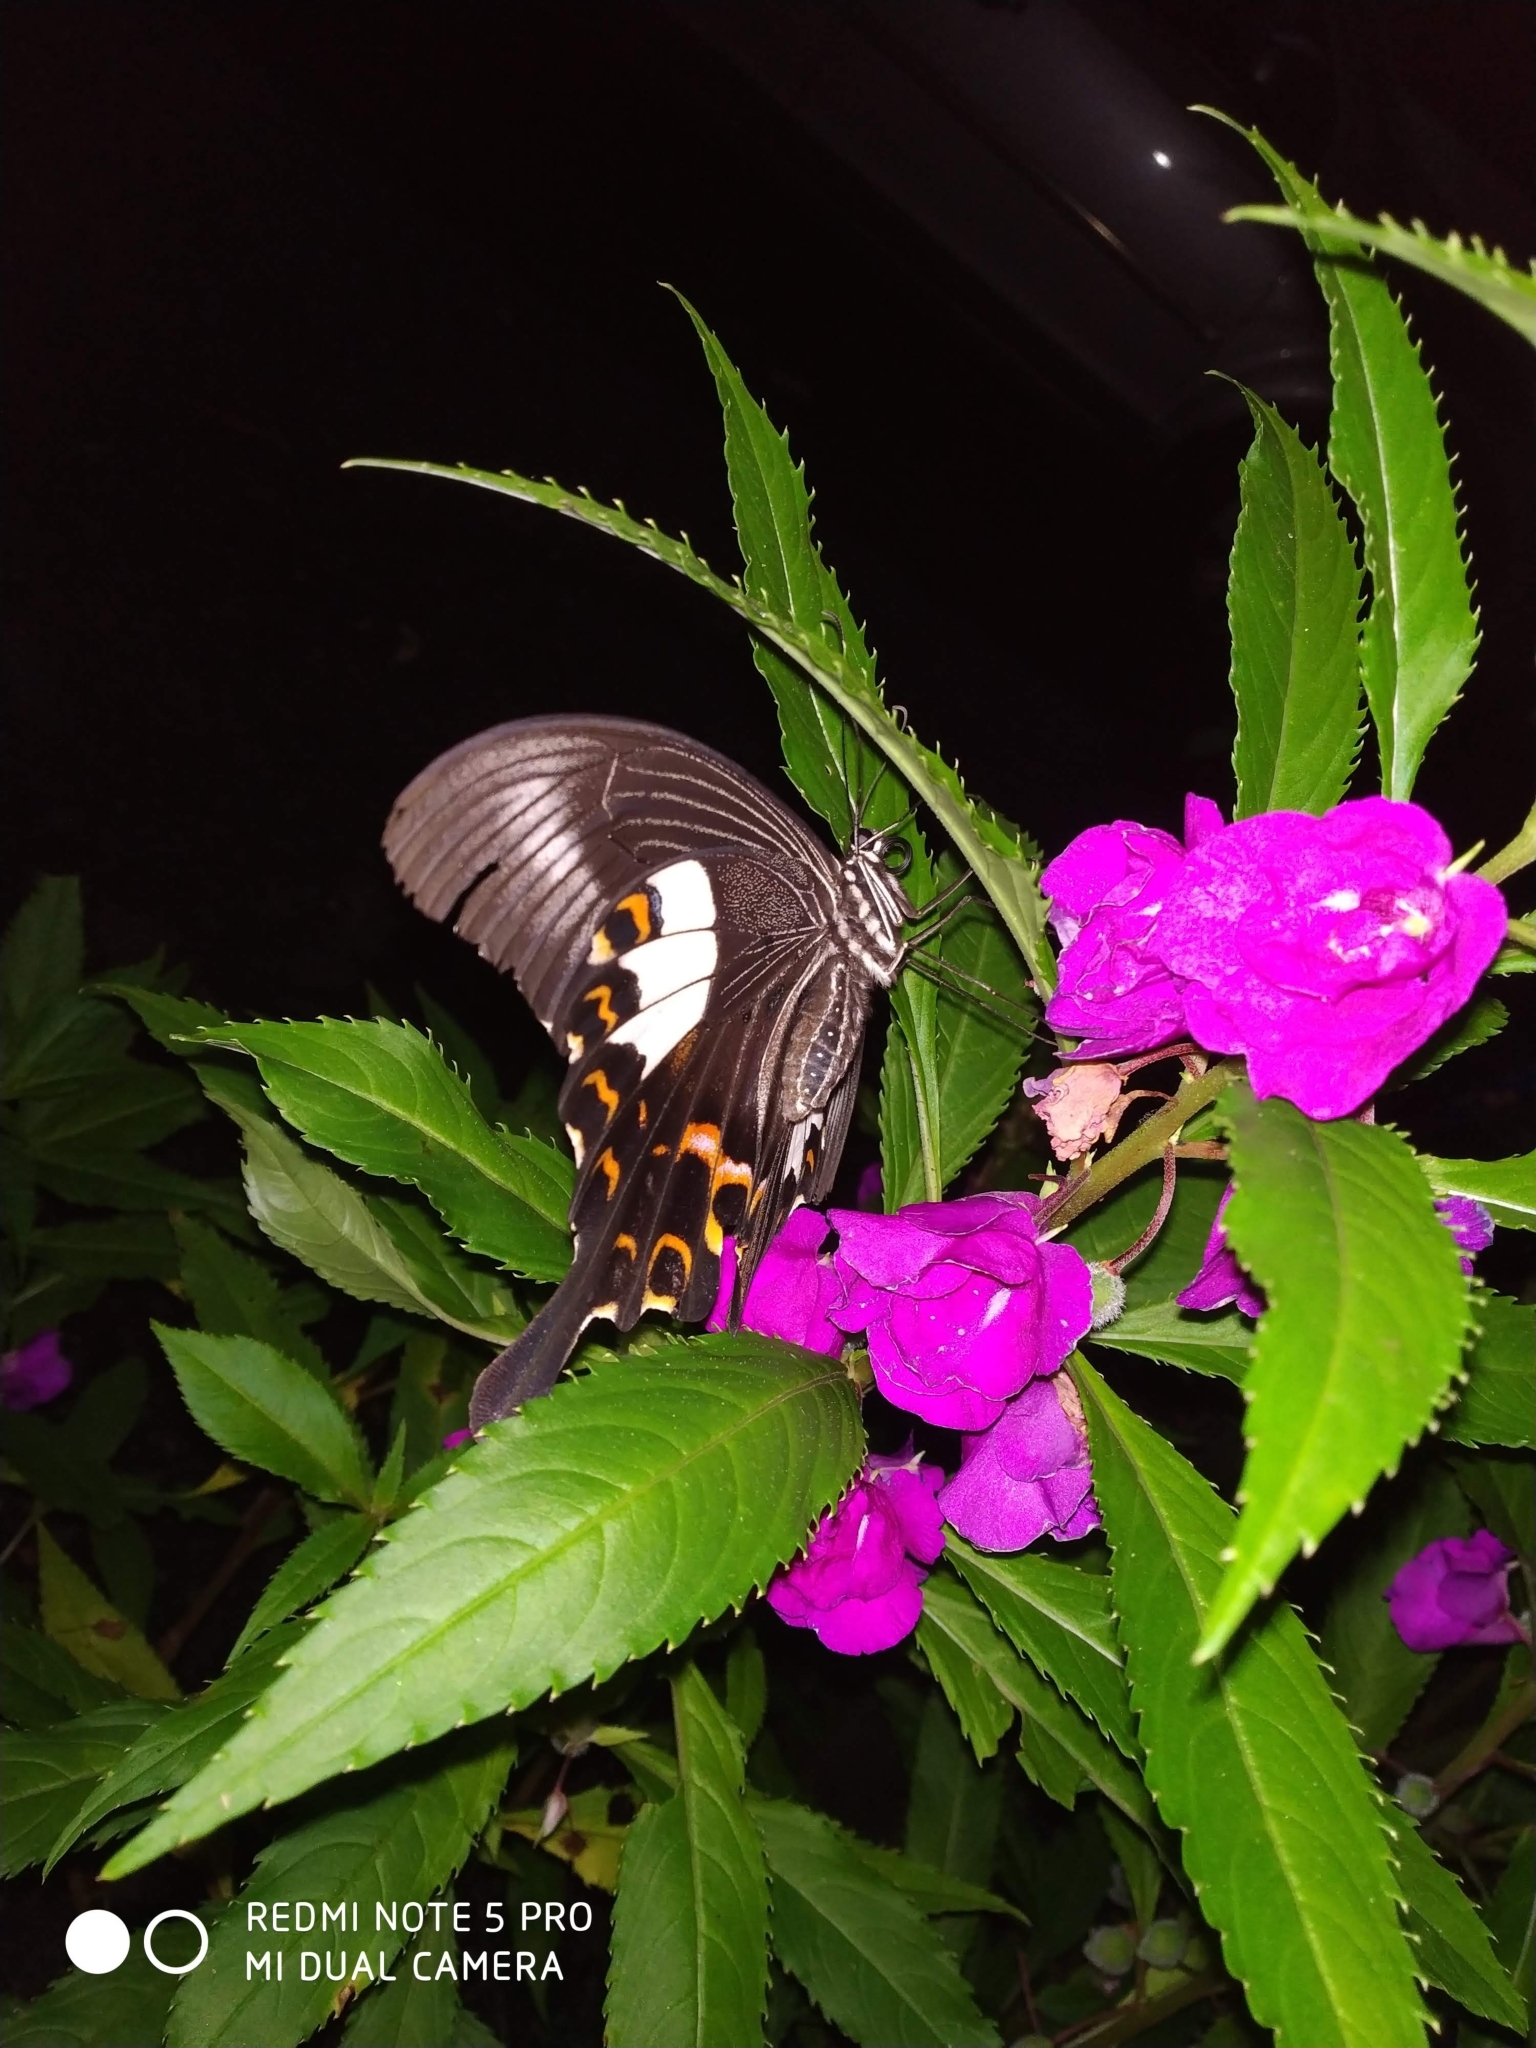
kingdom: Animalia
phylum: Arthropoda
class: Insecta
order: Lepidoptera
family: Papilionidae
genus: Papilio
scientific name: Papilio helenus
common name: Red helen
